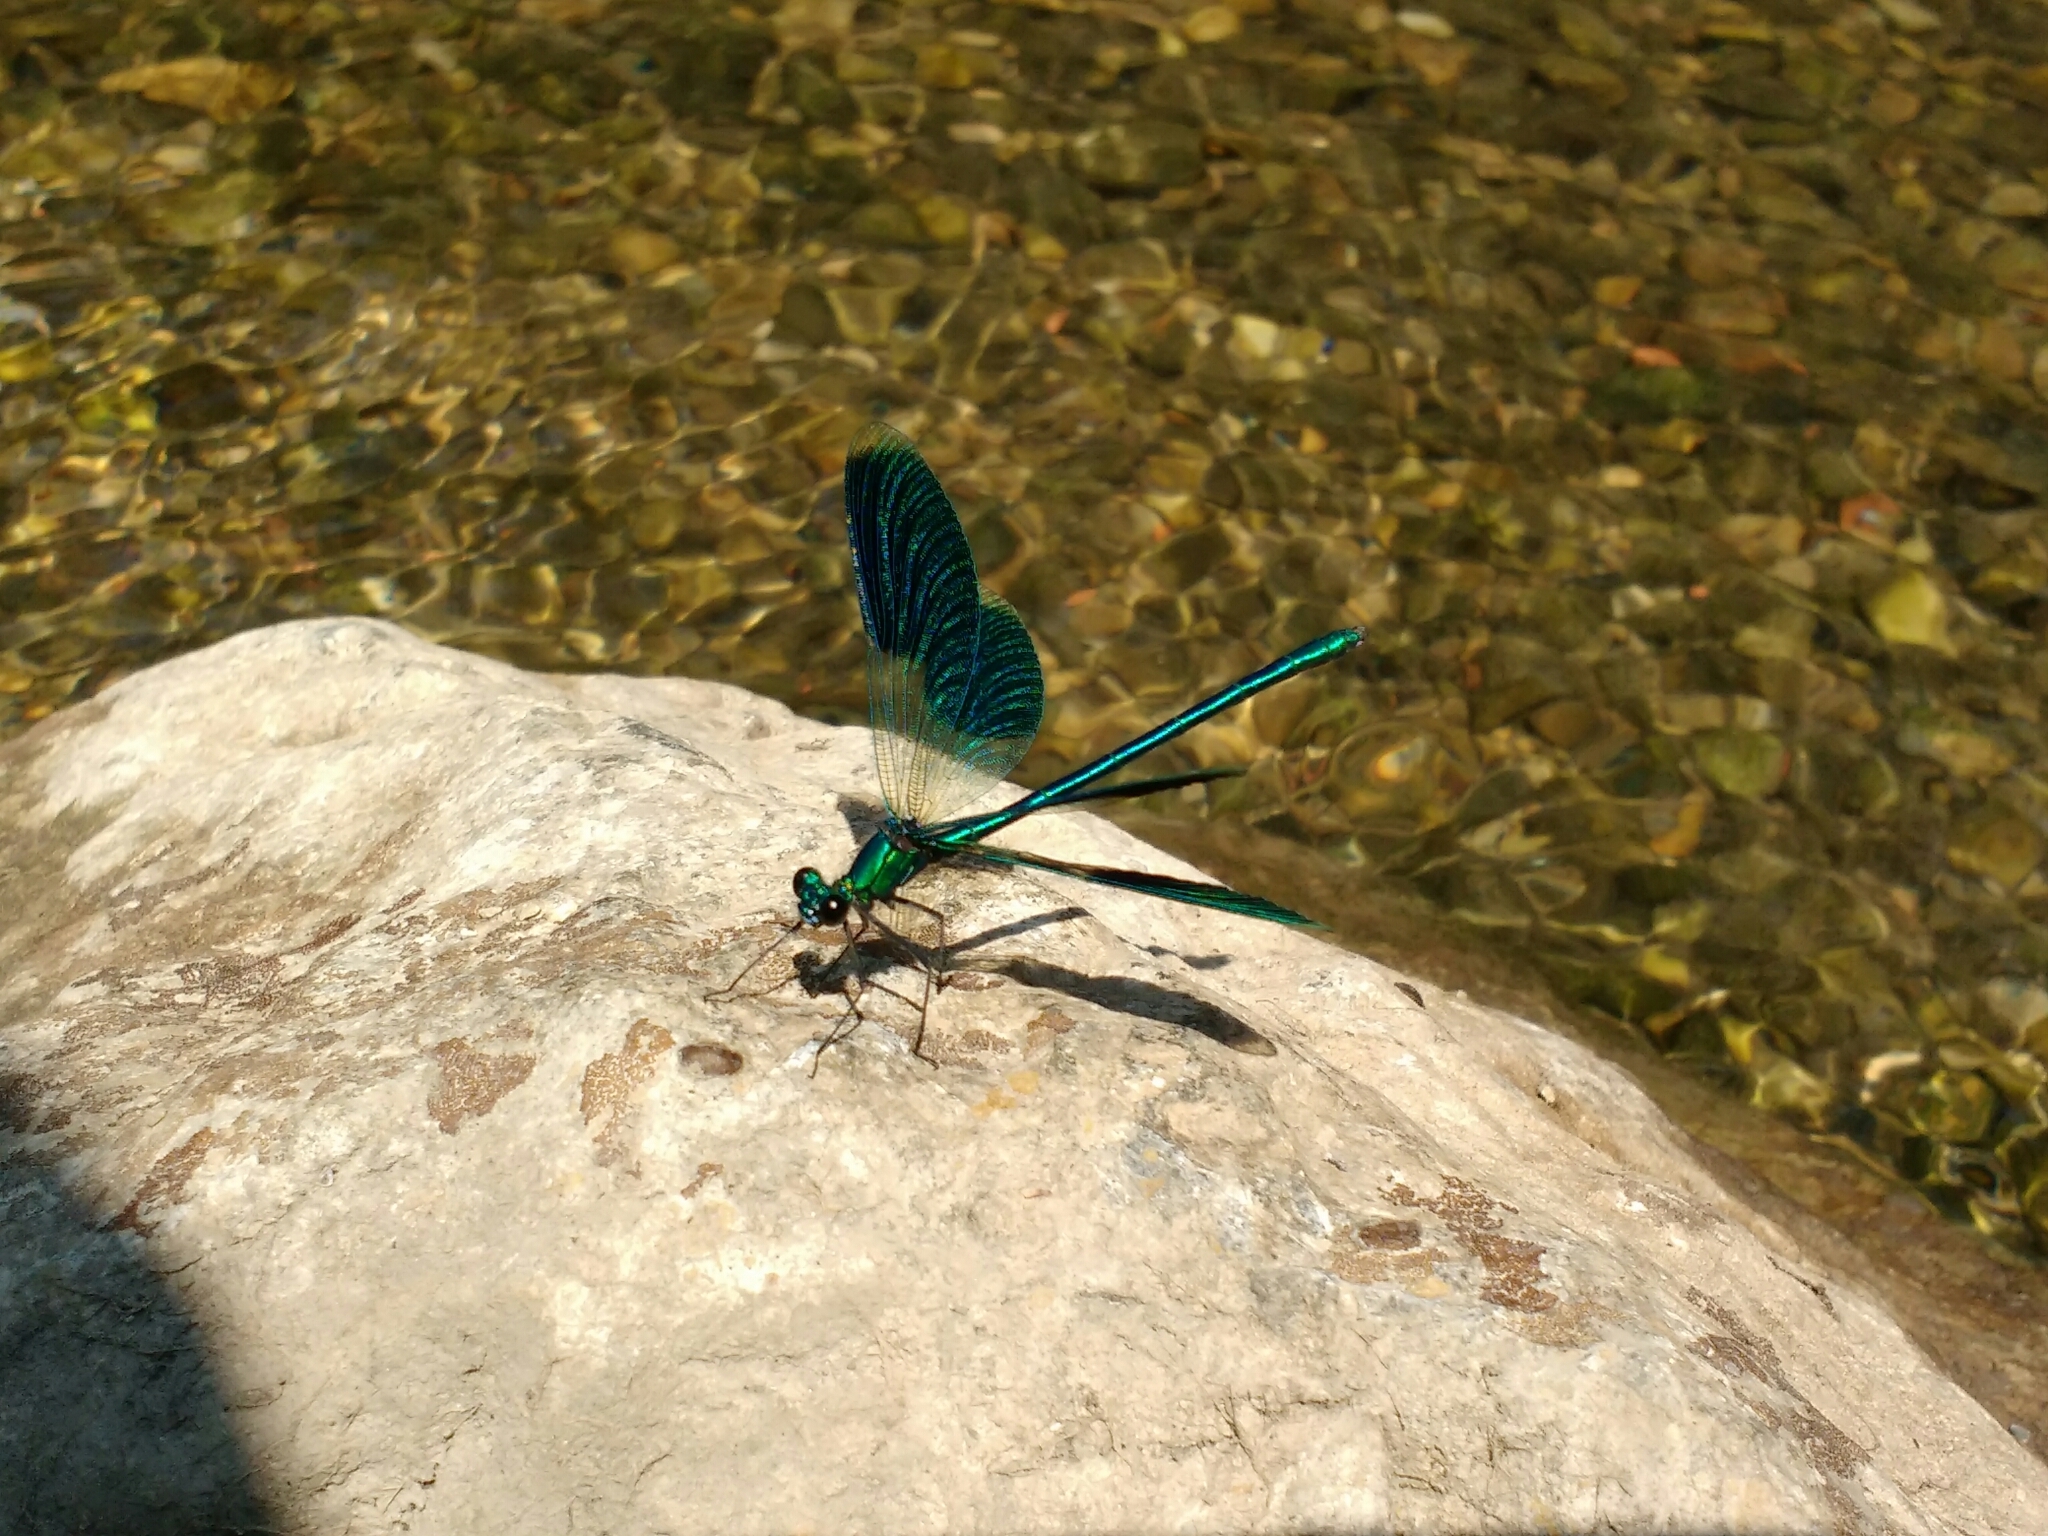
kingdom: Animalia
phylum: Arthropoda
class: Insecta
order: Odonata
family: Calopterygidae
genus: Calopteryx
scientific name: Calopteryx splendens
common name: Banded demoiselle
